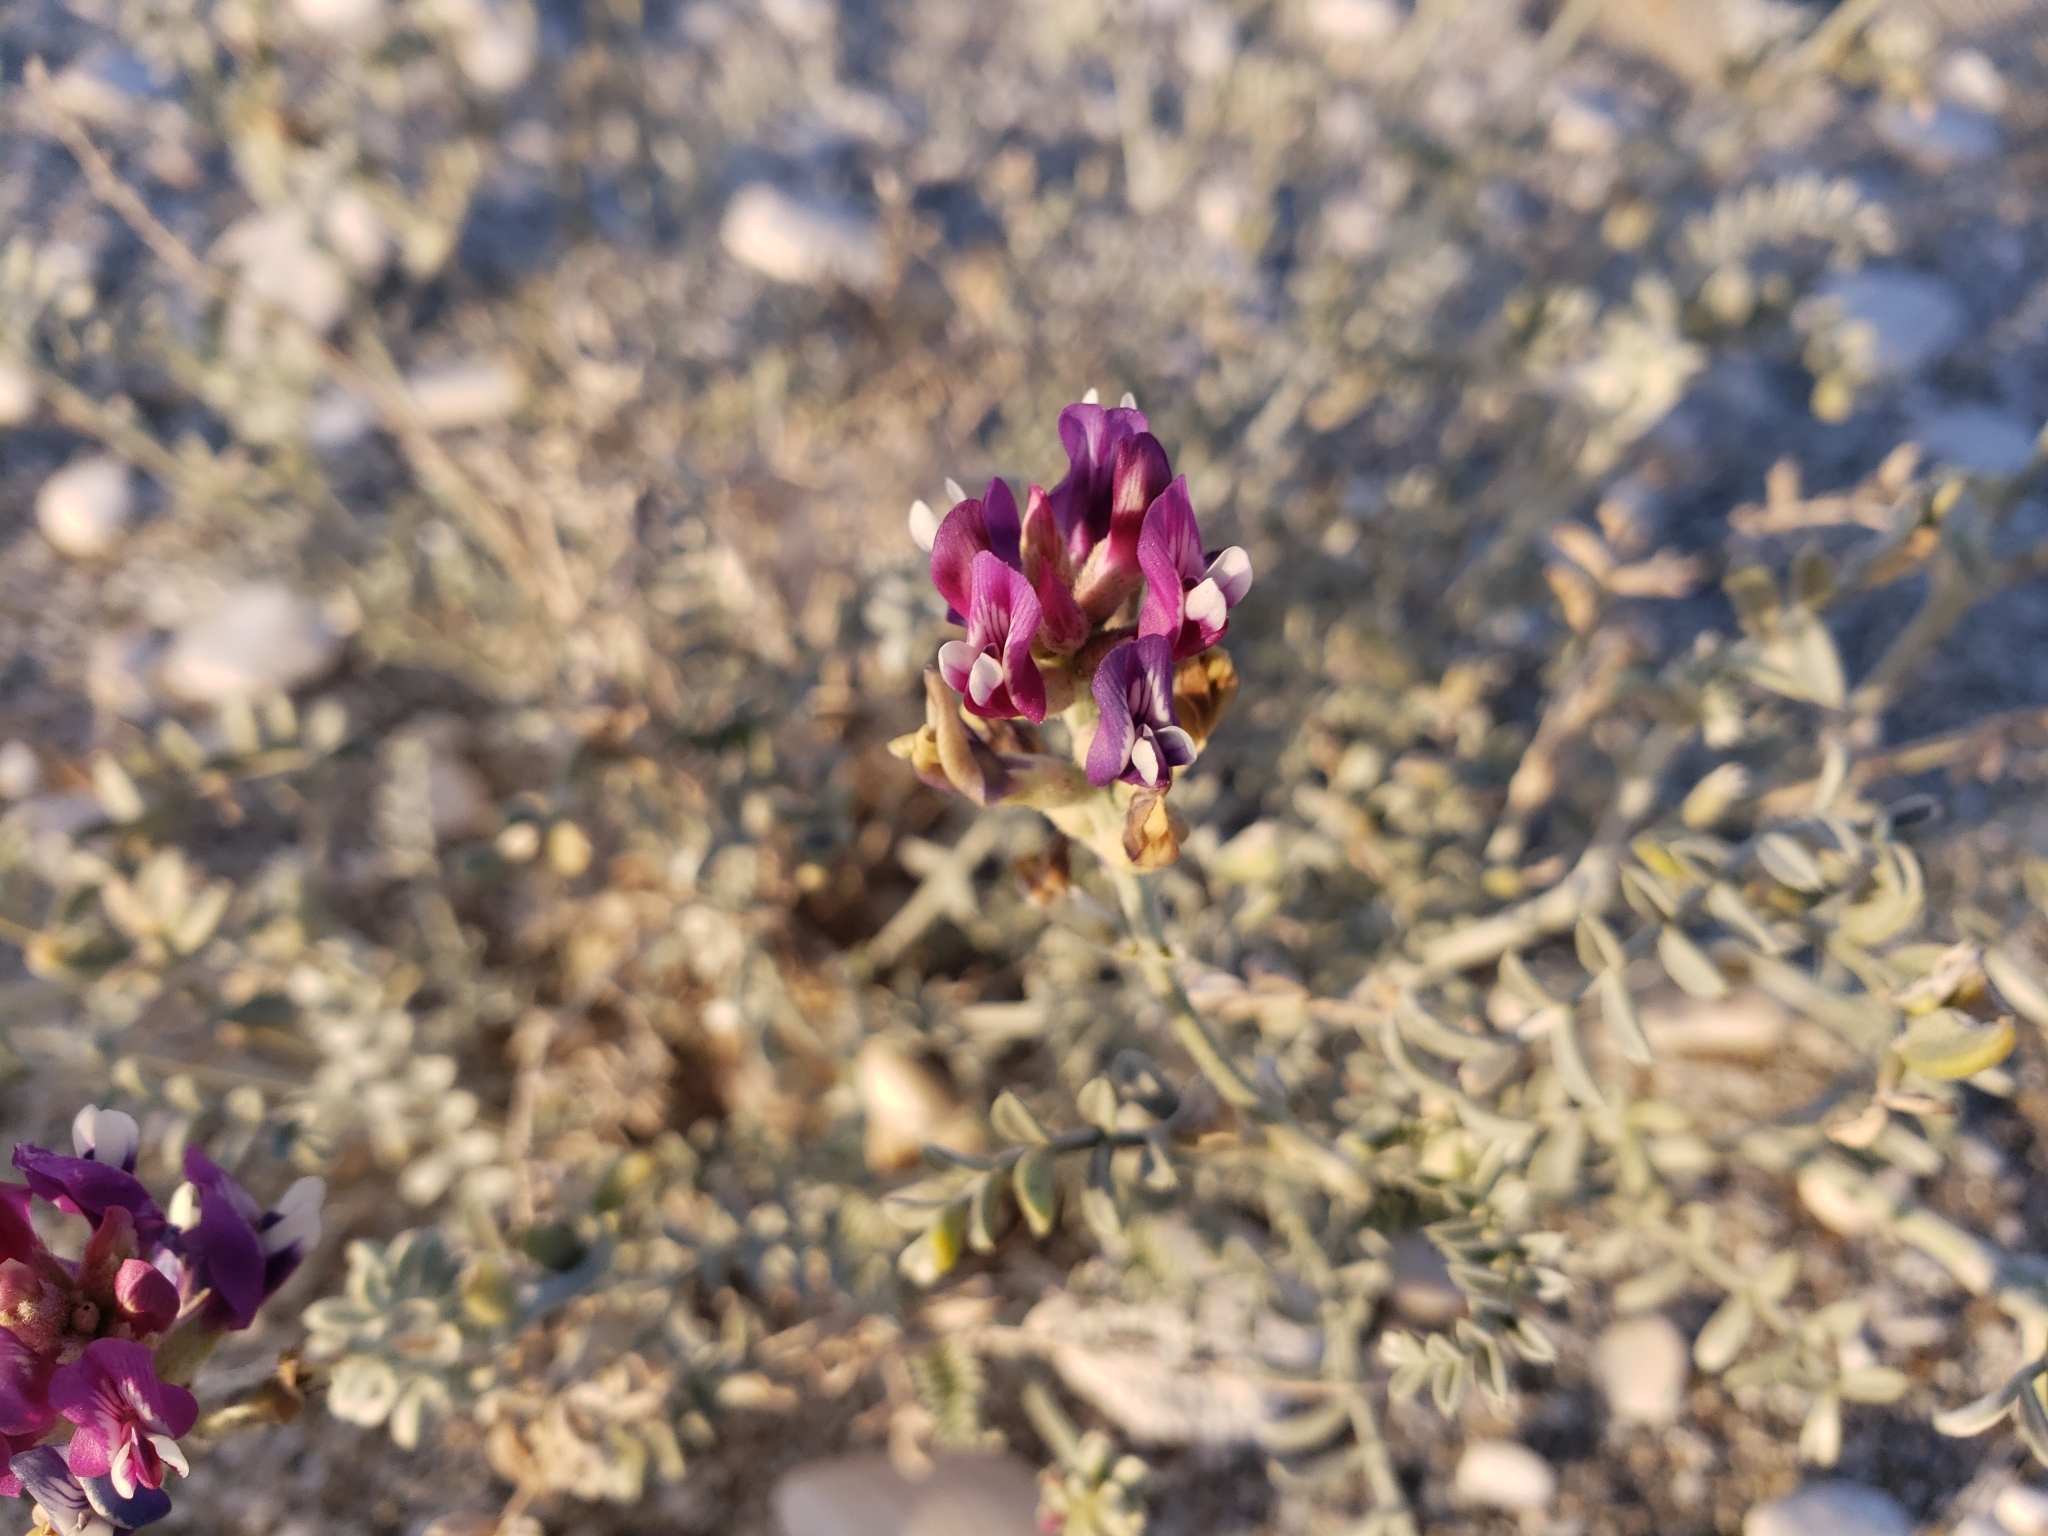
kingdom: Plantae
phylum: Tracheophyta
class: Magnoliopsida
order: Fabales
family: Fabaceae
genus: Astragalus
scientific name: Astragalus magdalenae
